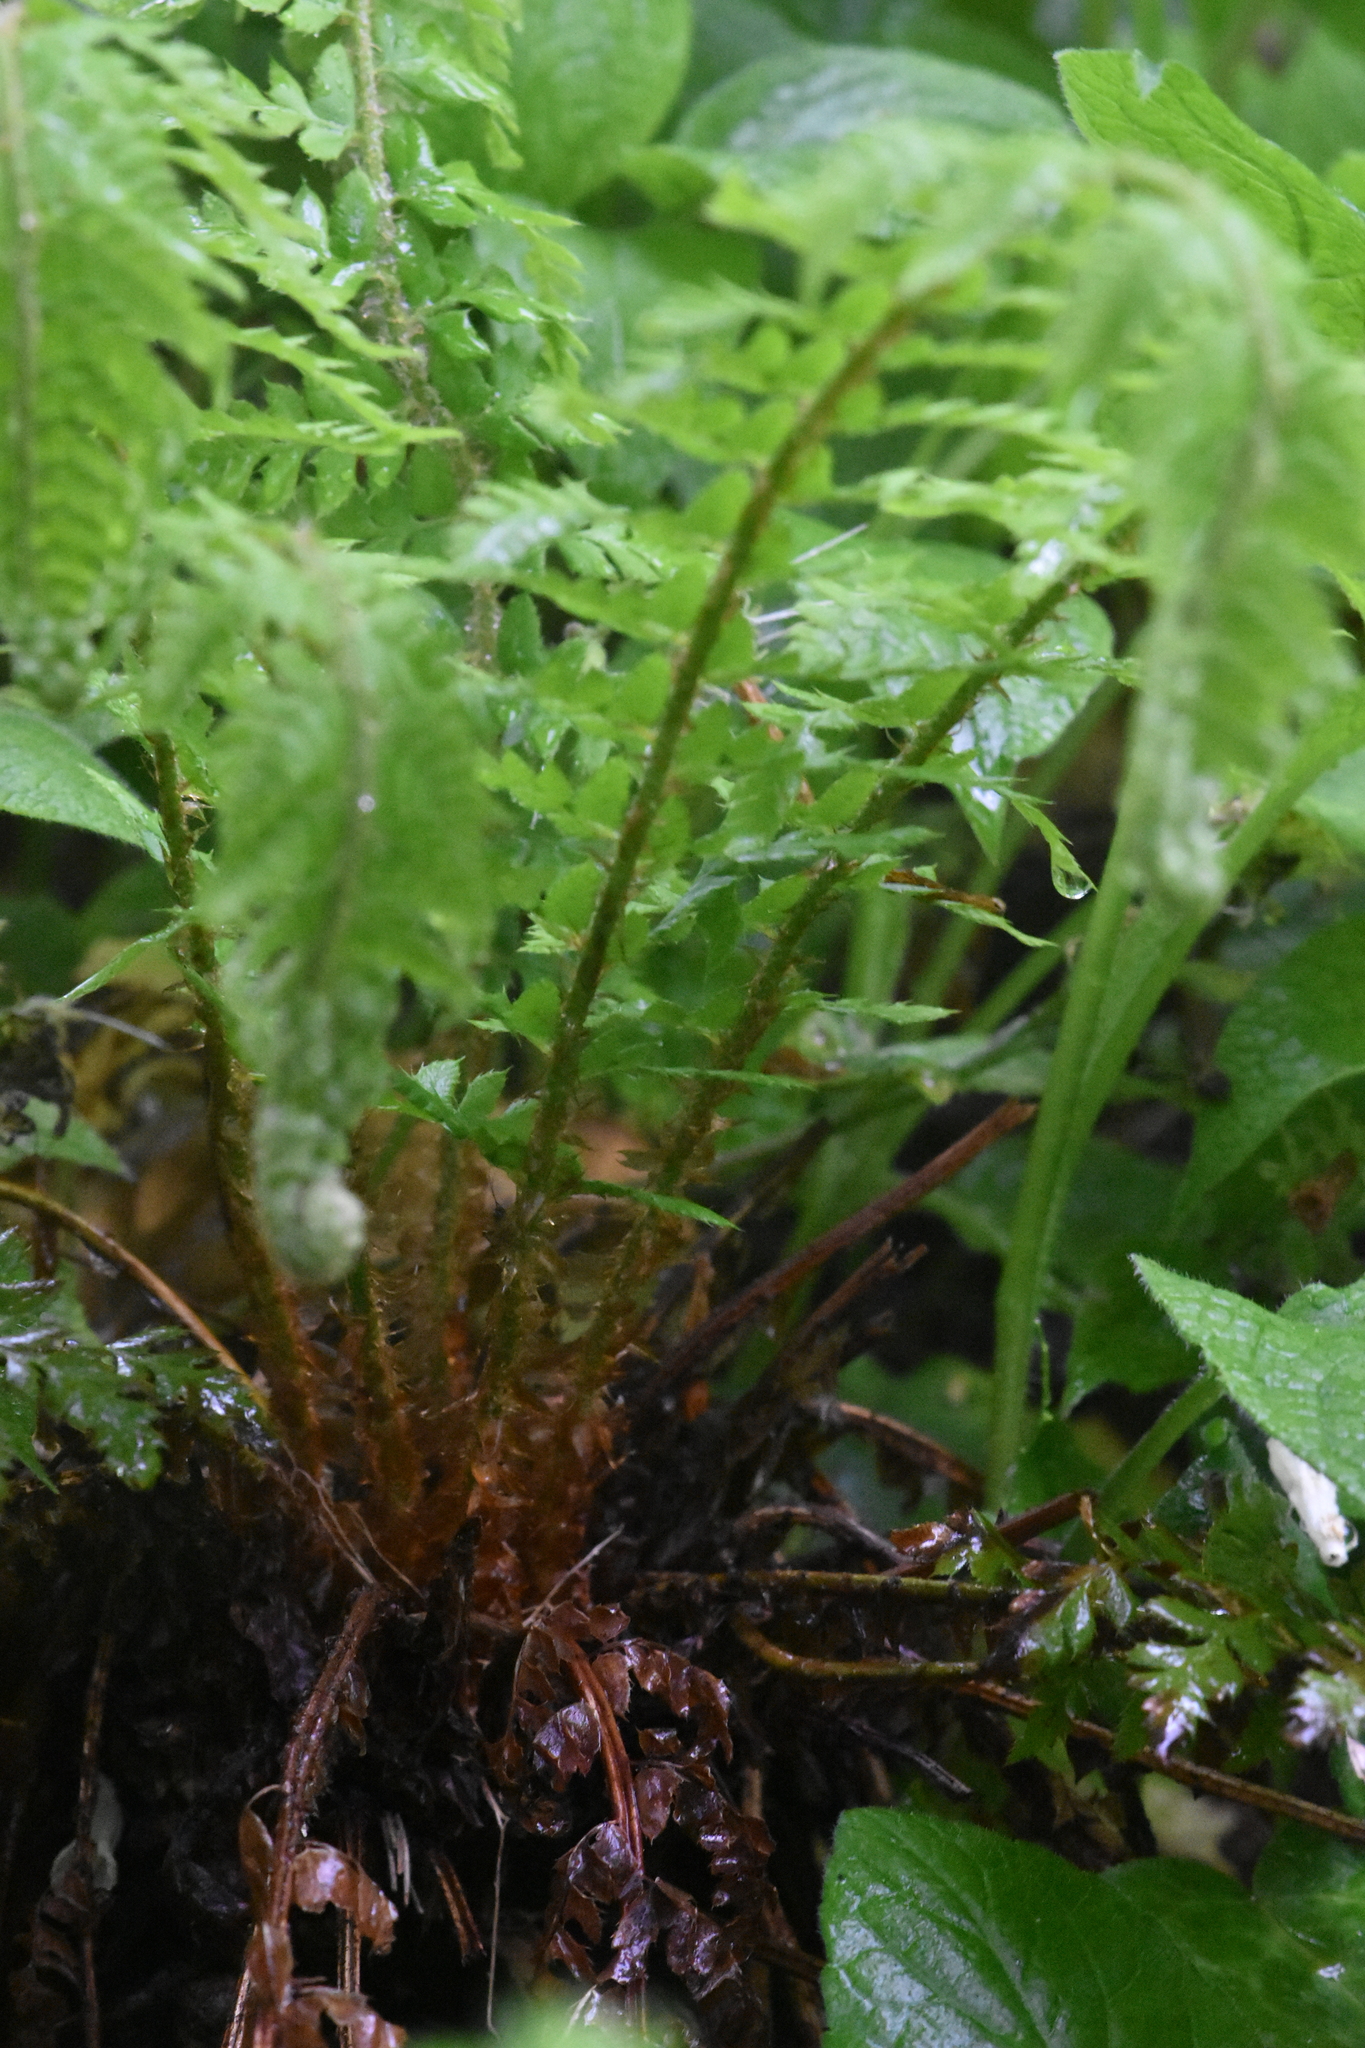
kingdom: Plantae
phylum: Tracheophyta
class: Polypodiopsida
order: Polypodiales
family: Dryopteridaceae
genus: Polystichum
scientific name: Polystichum aculeatum
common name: Hard shield-fern
